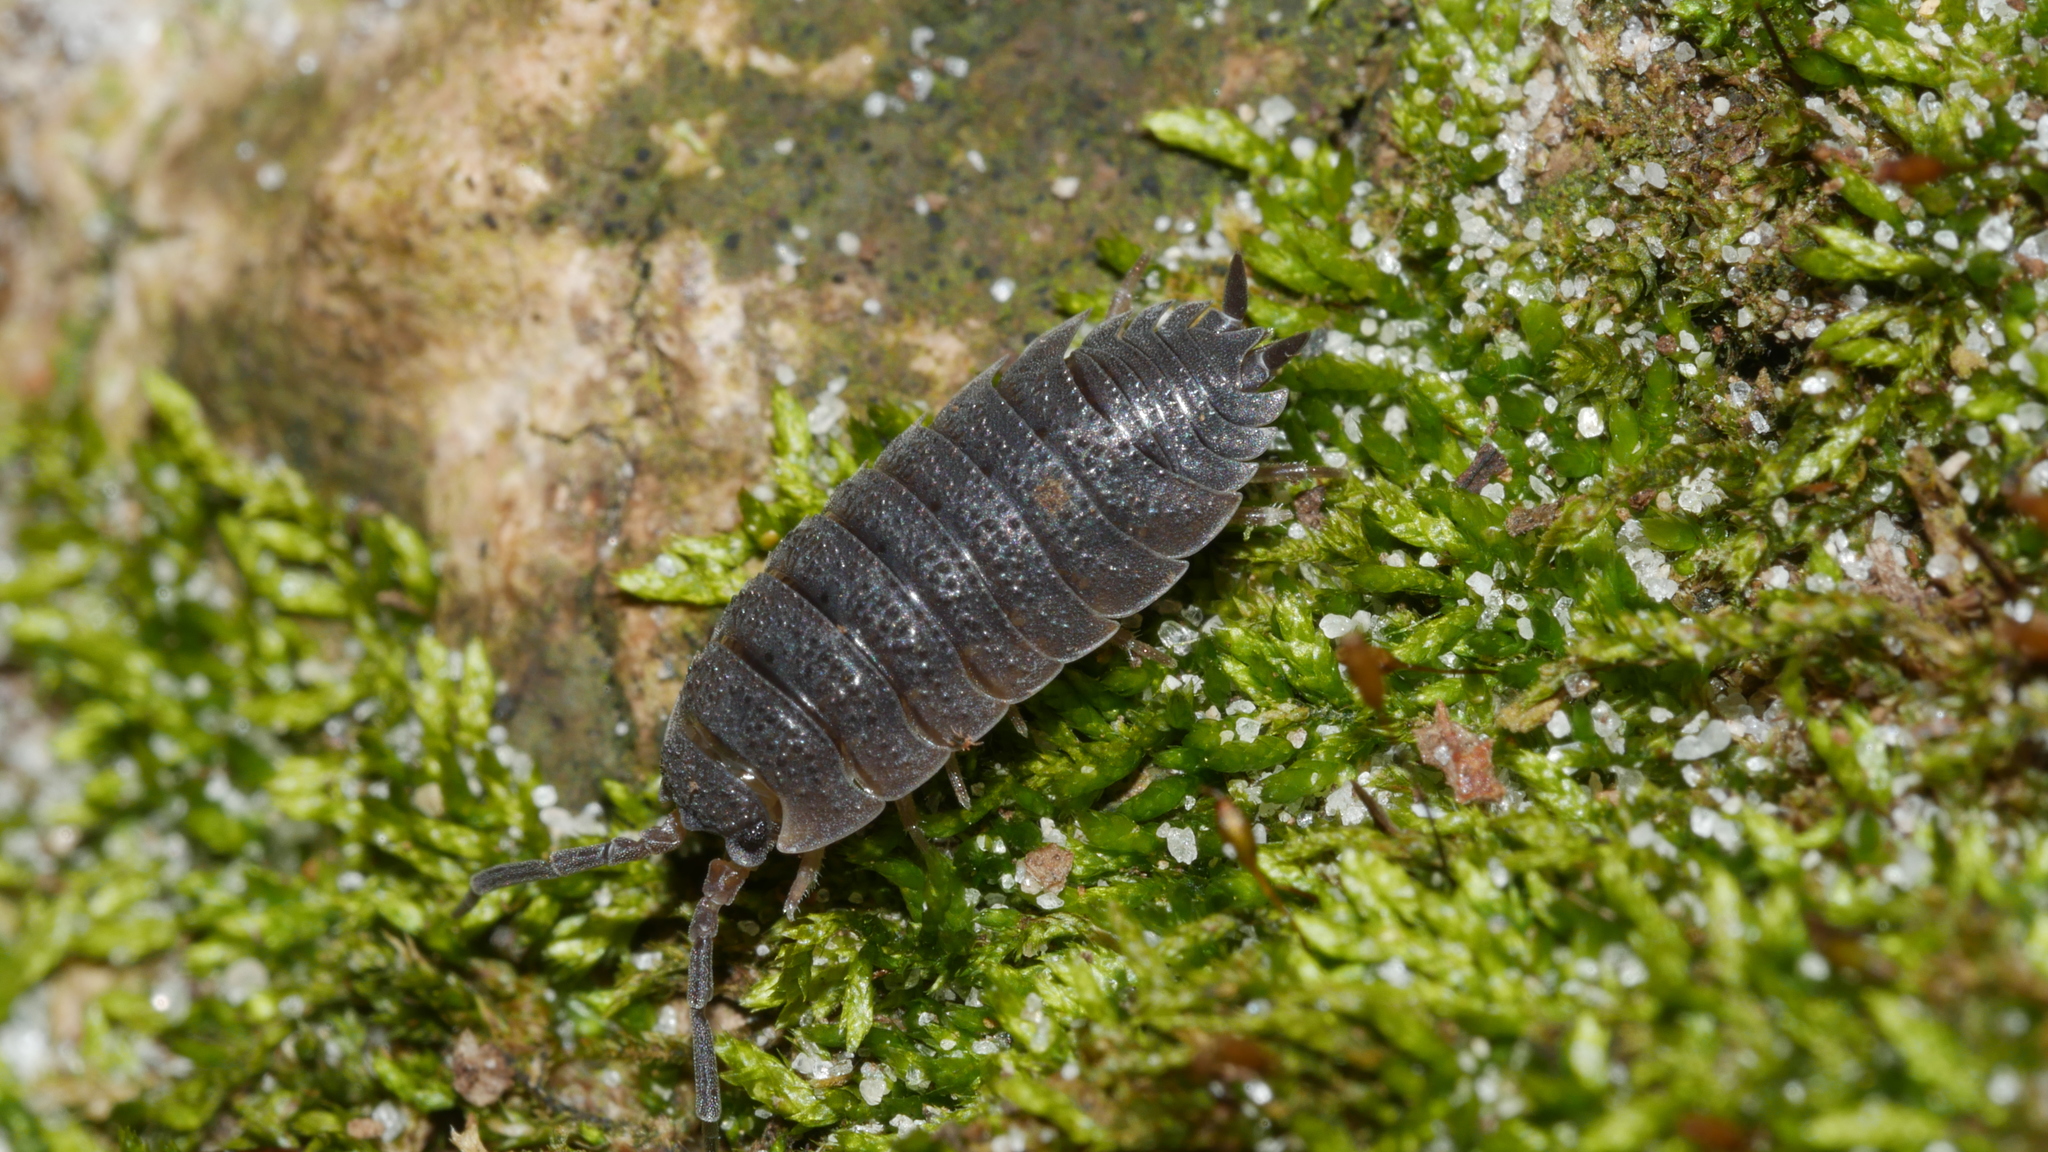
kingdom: Animalia
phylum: Arthropoda
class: Malacostraca
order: Isopoda
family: Porcellionidae
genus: Porcellio
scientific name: Porcellio scaber
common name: Common rough woodlouse
